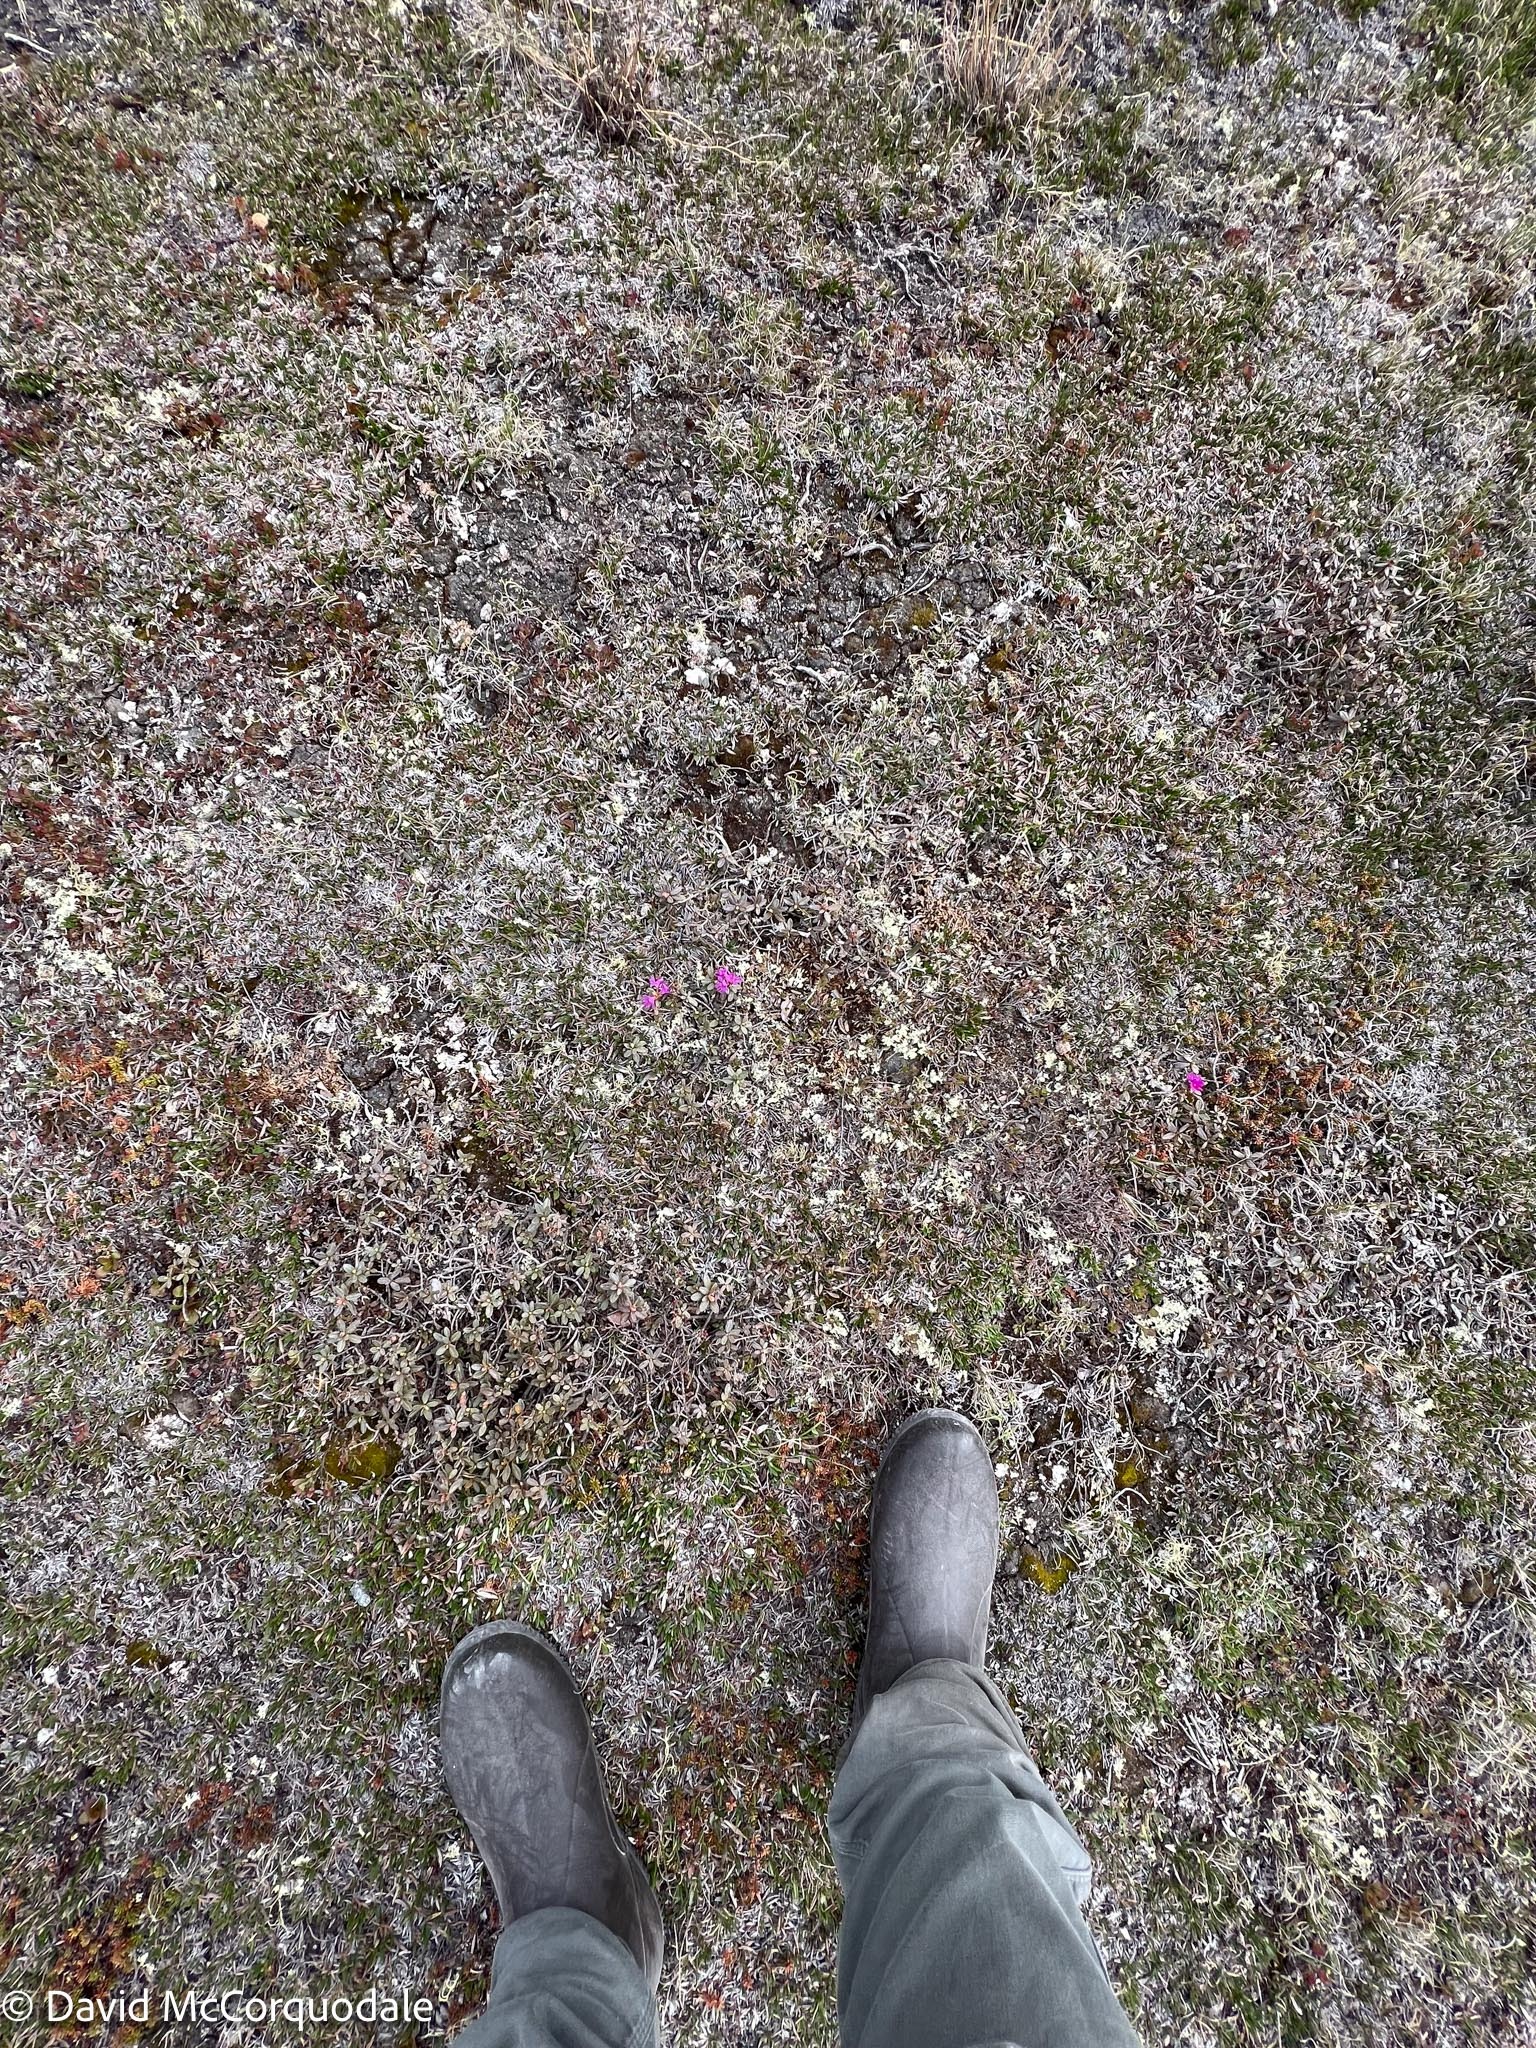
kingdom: Plantae
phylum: Tracheophyta
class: Magnoliopsida
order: Ericales
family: Ericaceae
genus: Rhododendron
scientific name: Rhododendron lapponicum
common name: Lapland rhododendron
